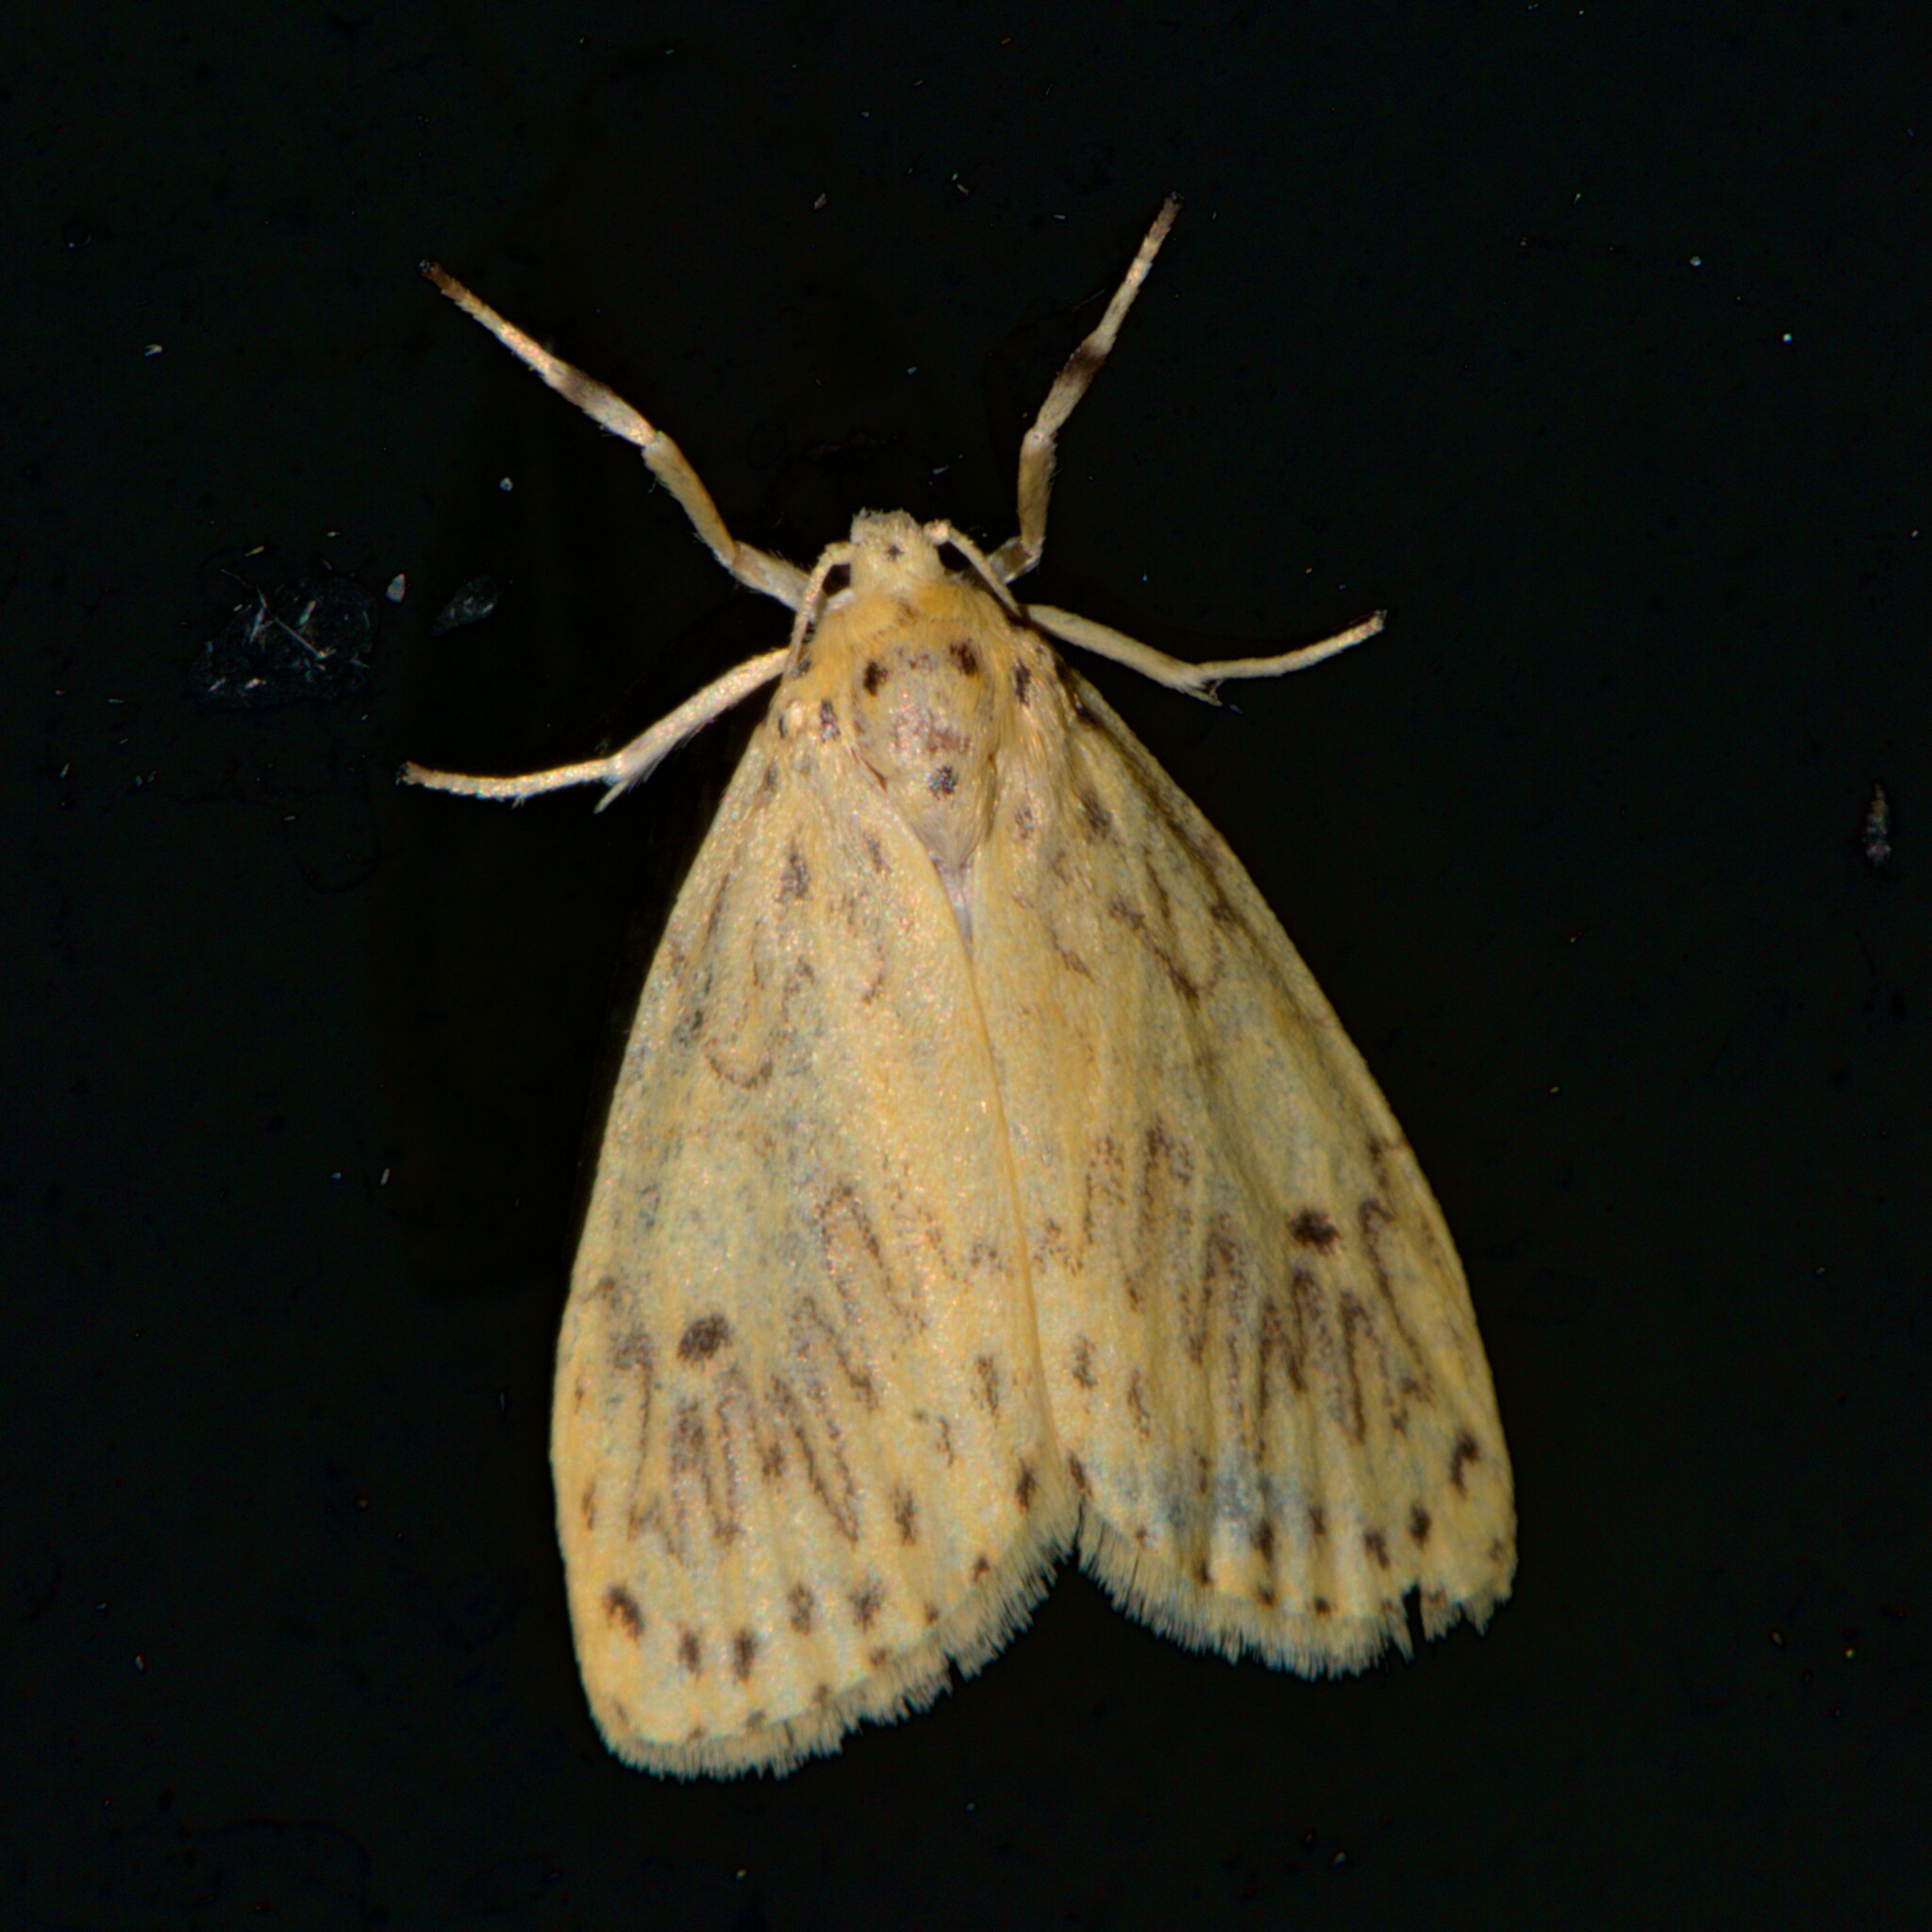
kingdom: Animalia
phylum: Arthropoda
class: Insecta
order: Lepidoptera
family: Erebidae
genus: Miltochrista
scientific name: Miltochrista undulosa
